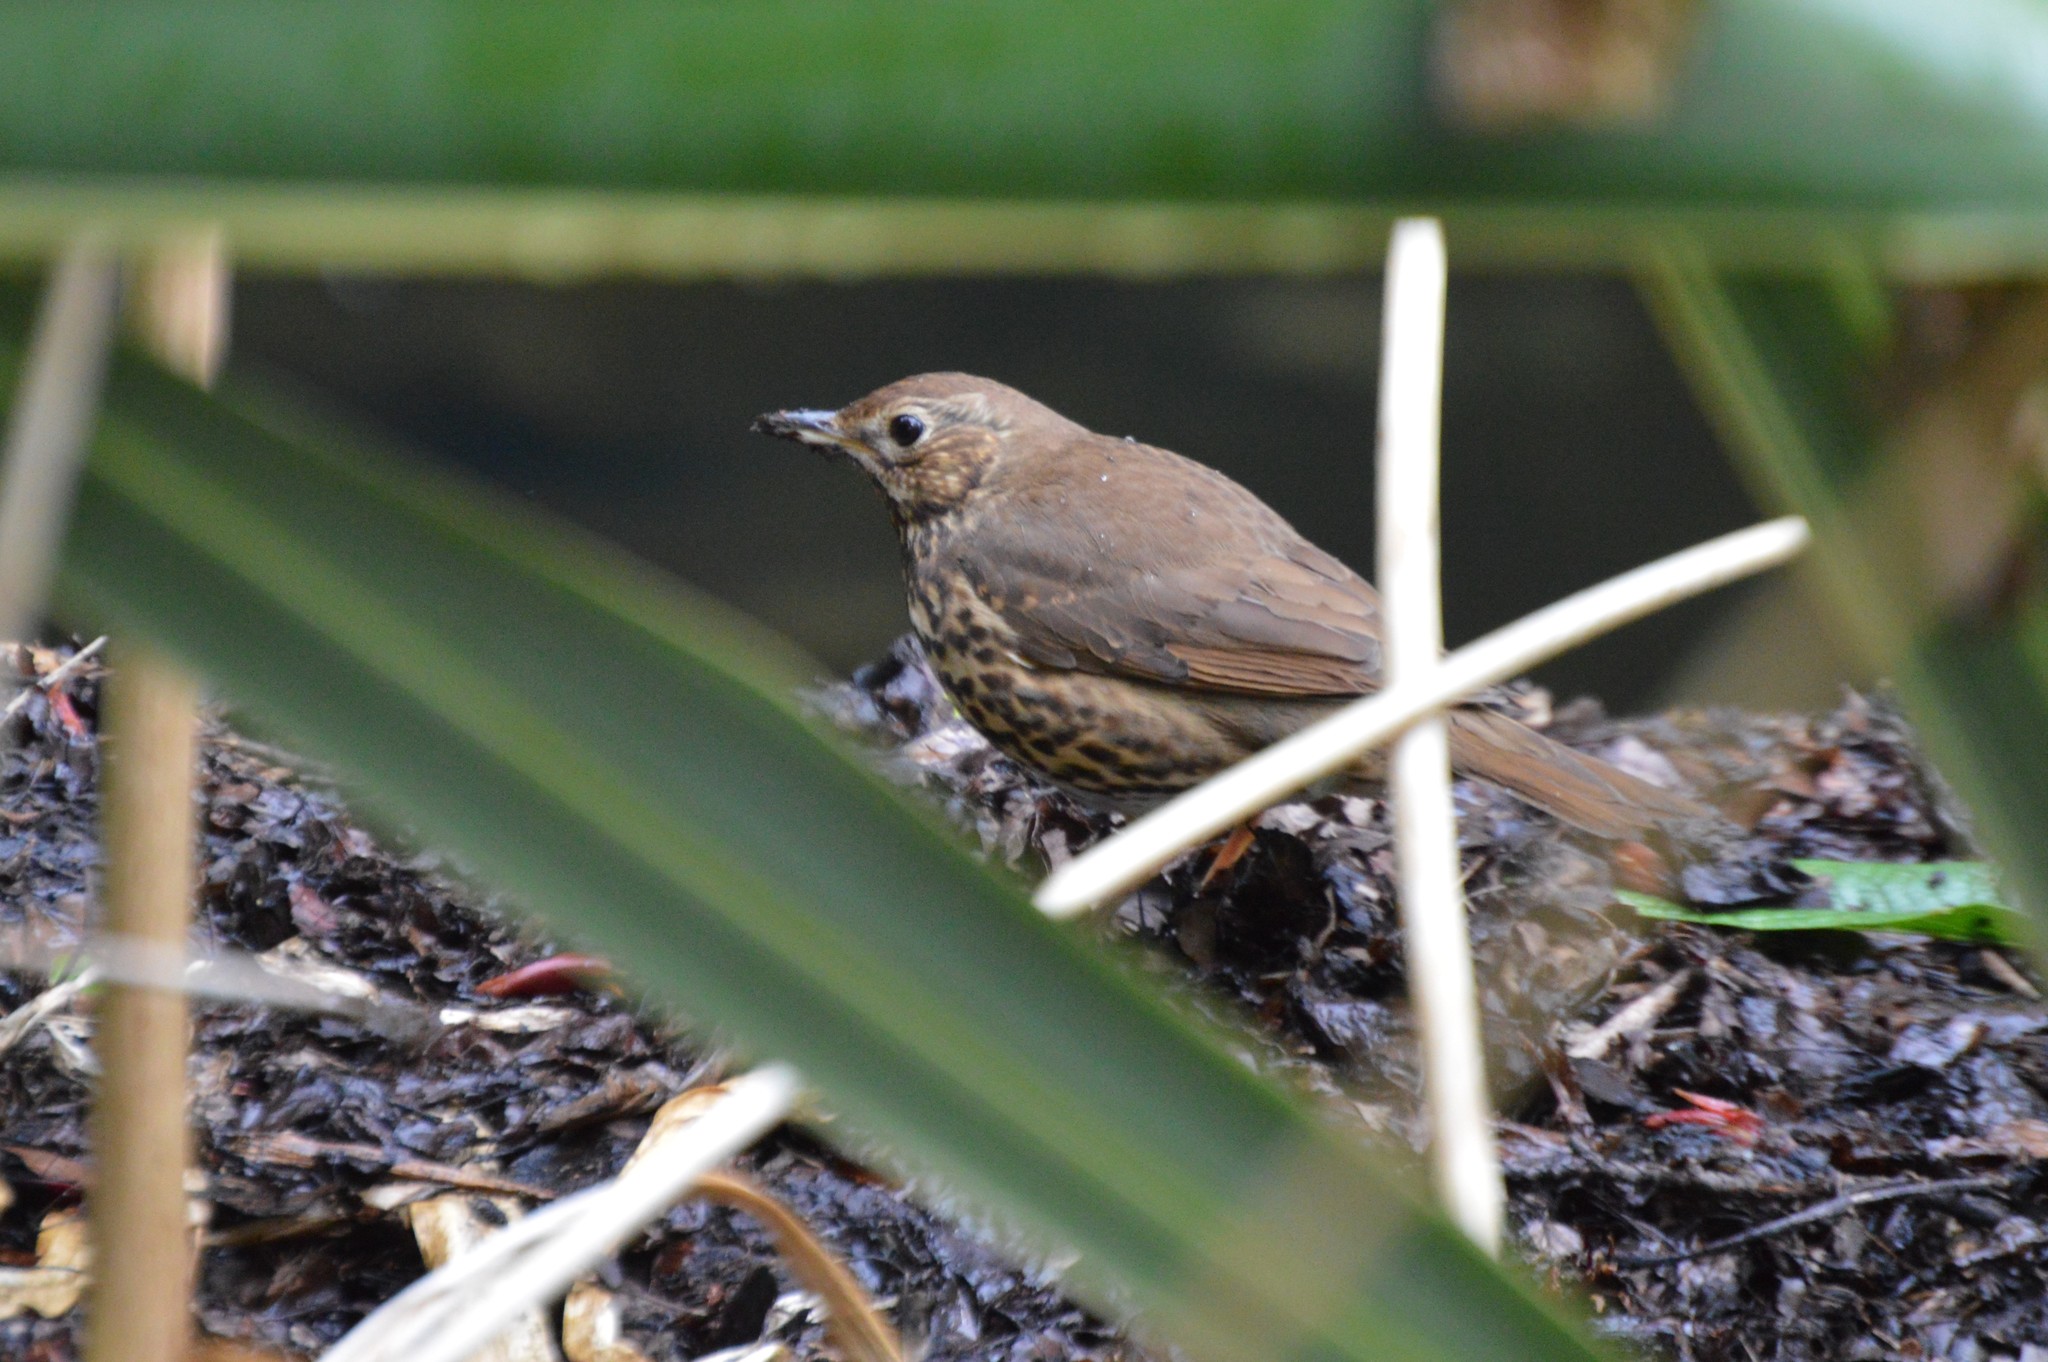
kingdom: Animalia
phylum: Chordata
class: Aves
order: Passeriformes
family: Turdidae
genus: Turdus
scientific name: Turdus philomelos
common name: Song thrush
